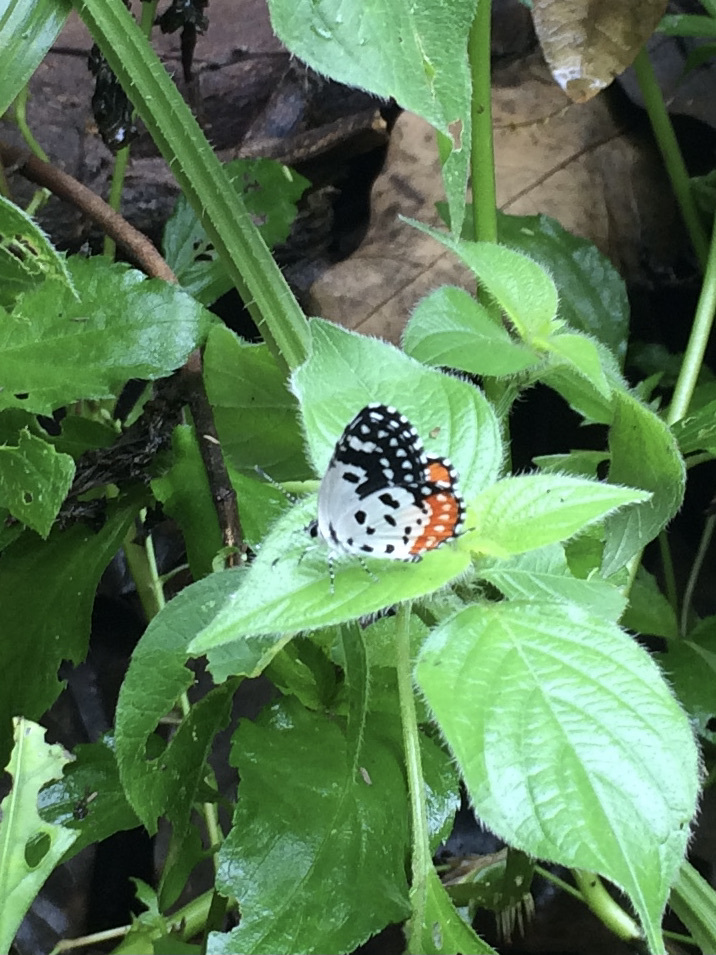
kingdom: Animalia
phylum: Arthropoda
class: Insecta
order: Lepidoptera
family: Lycaenidae
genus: Talicada
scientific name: Talicada nyseus
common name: Red pierrot
